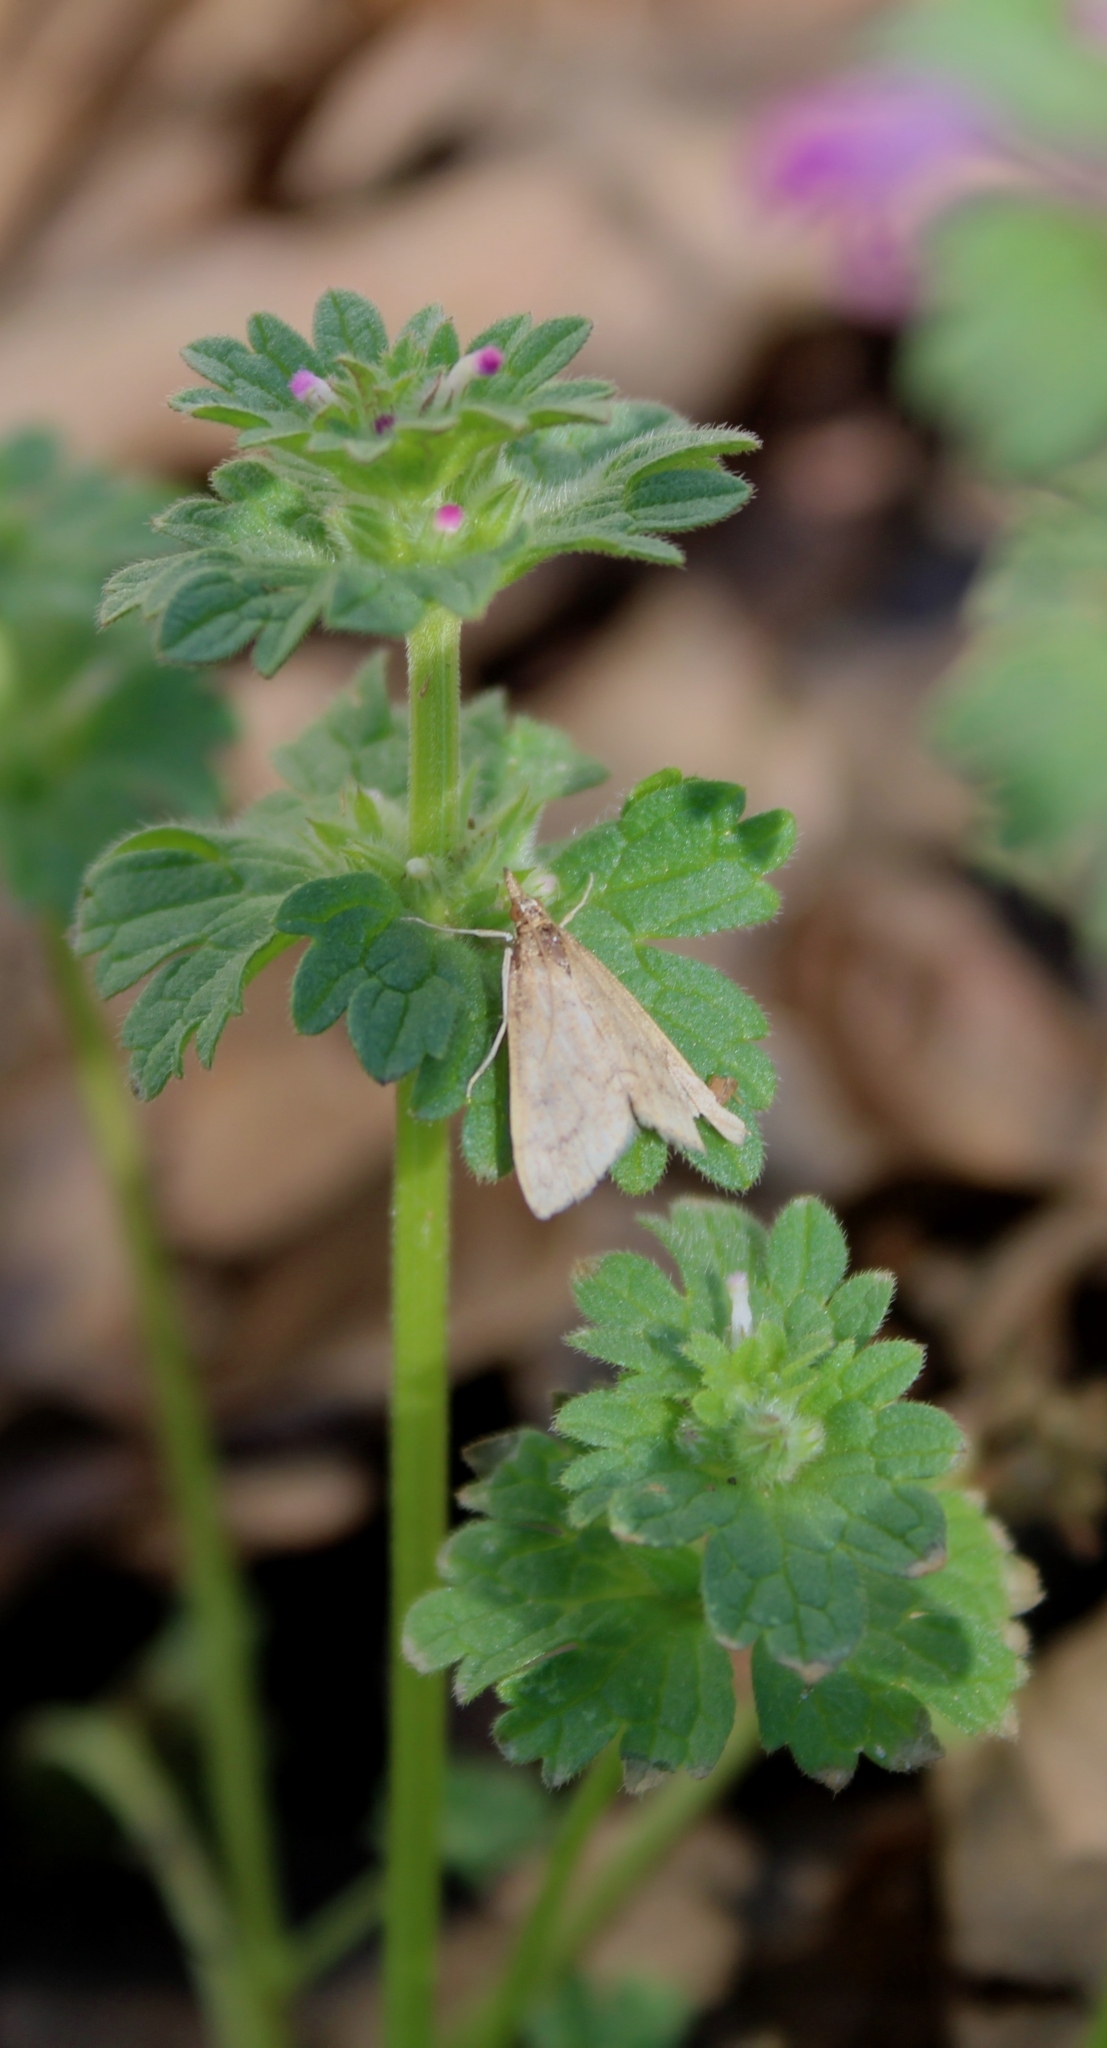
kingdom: Animalia
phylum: Arthropoda
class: Insecta
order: Lepidoptera
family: Crambidae
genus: Udea
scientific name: Udea rubigalis
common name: Celery leaftier moth
